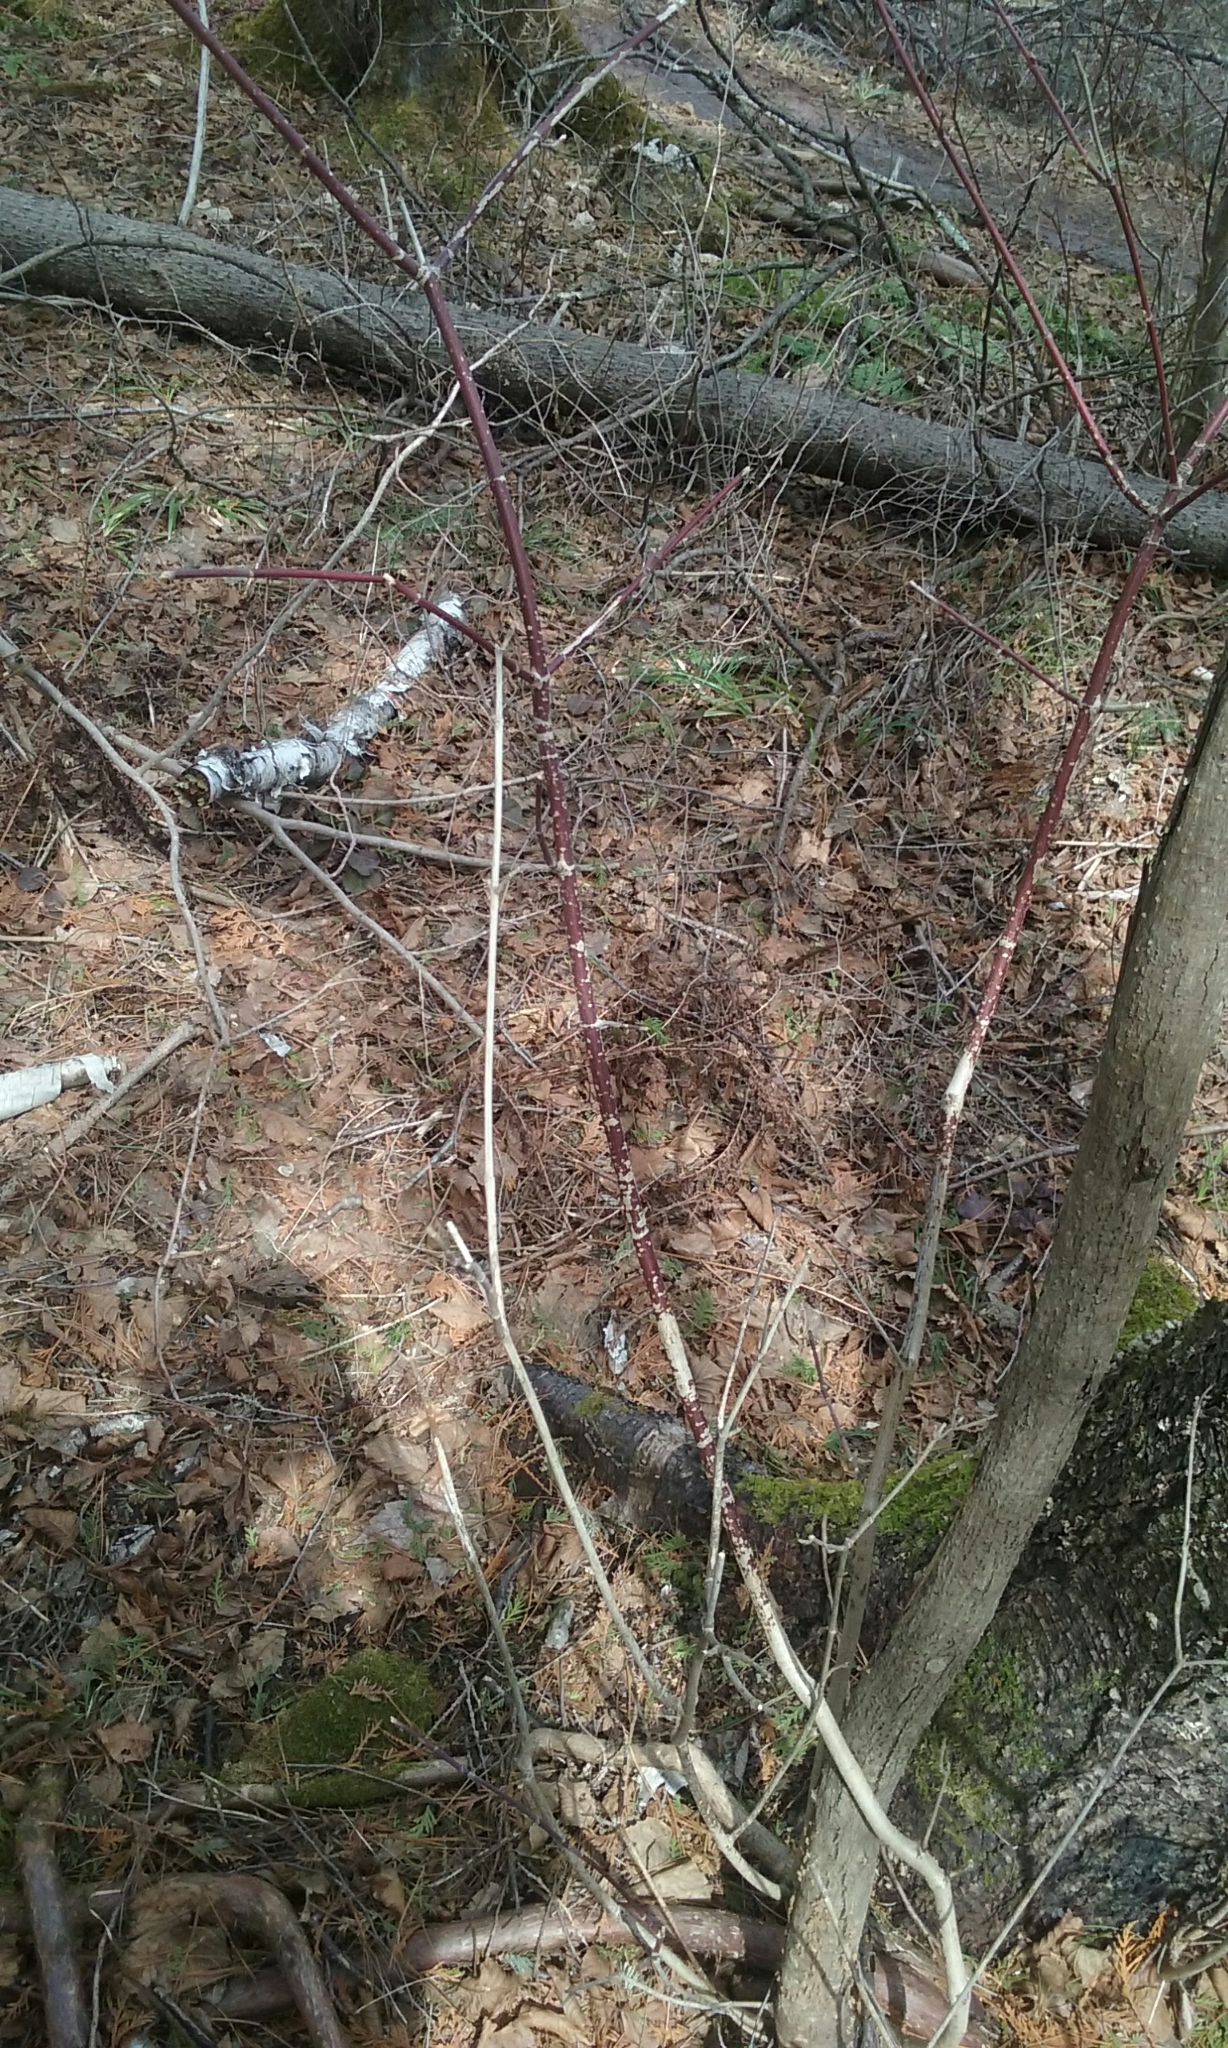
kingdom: Plantae
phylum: Tracheophyta
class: Magnoliopsida
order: Sapindales
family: Sapindaceae
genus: Acer
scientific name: Acer spicatum
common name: Mountain maple
